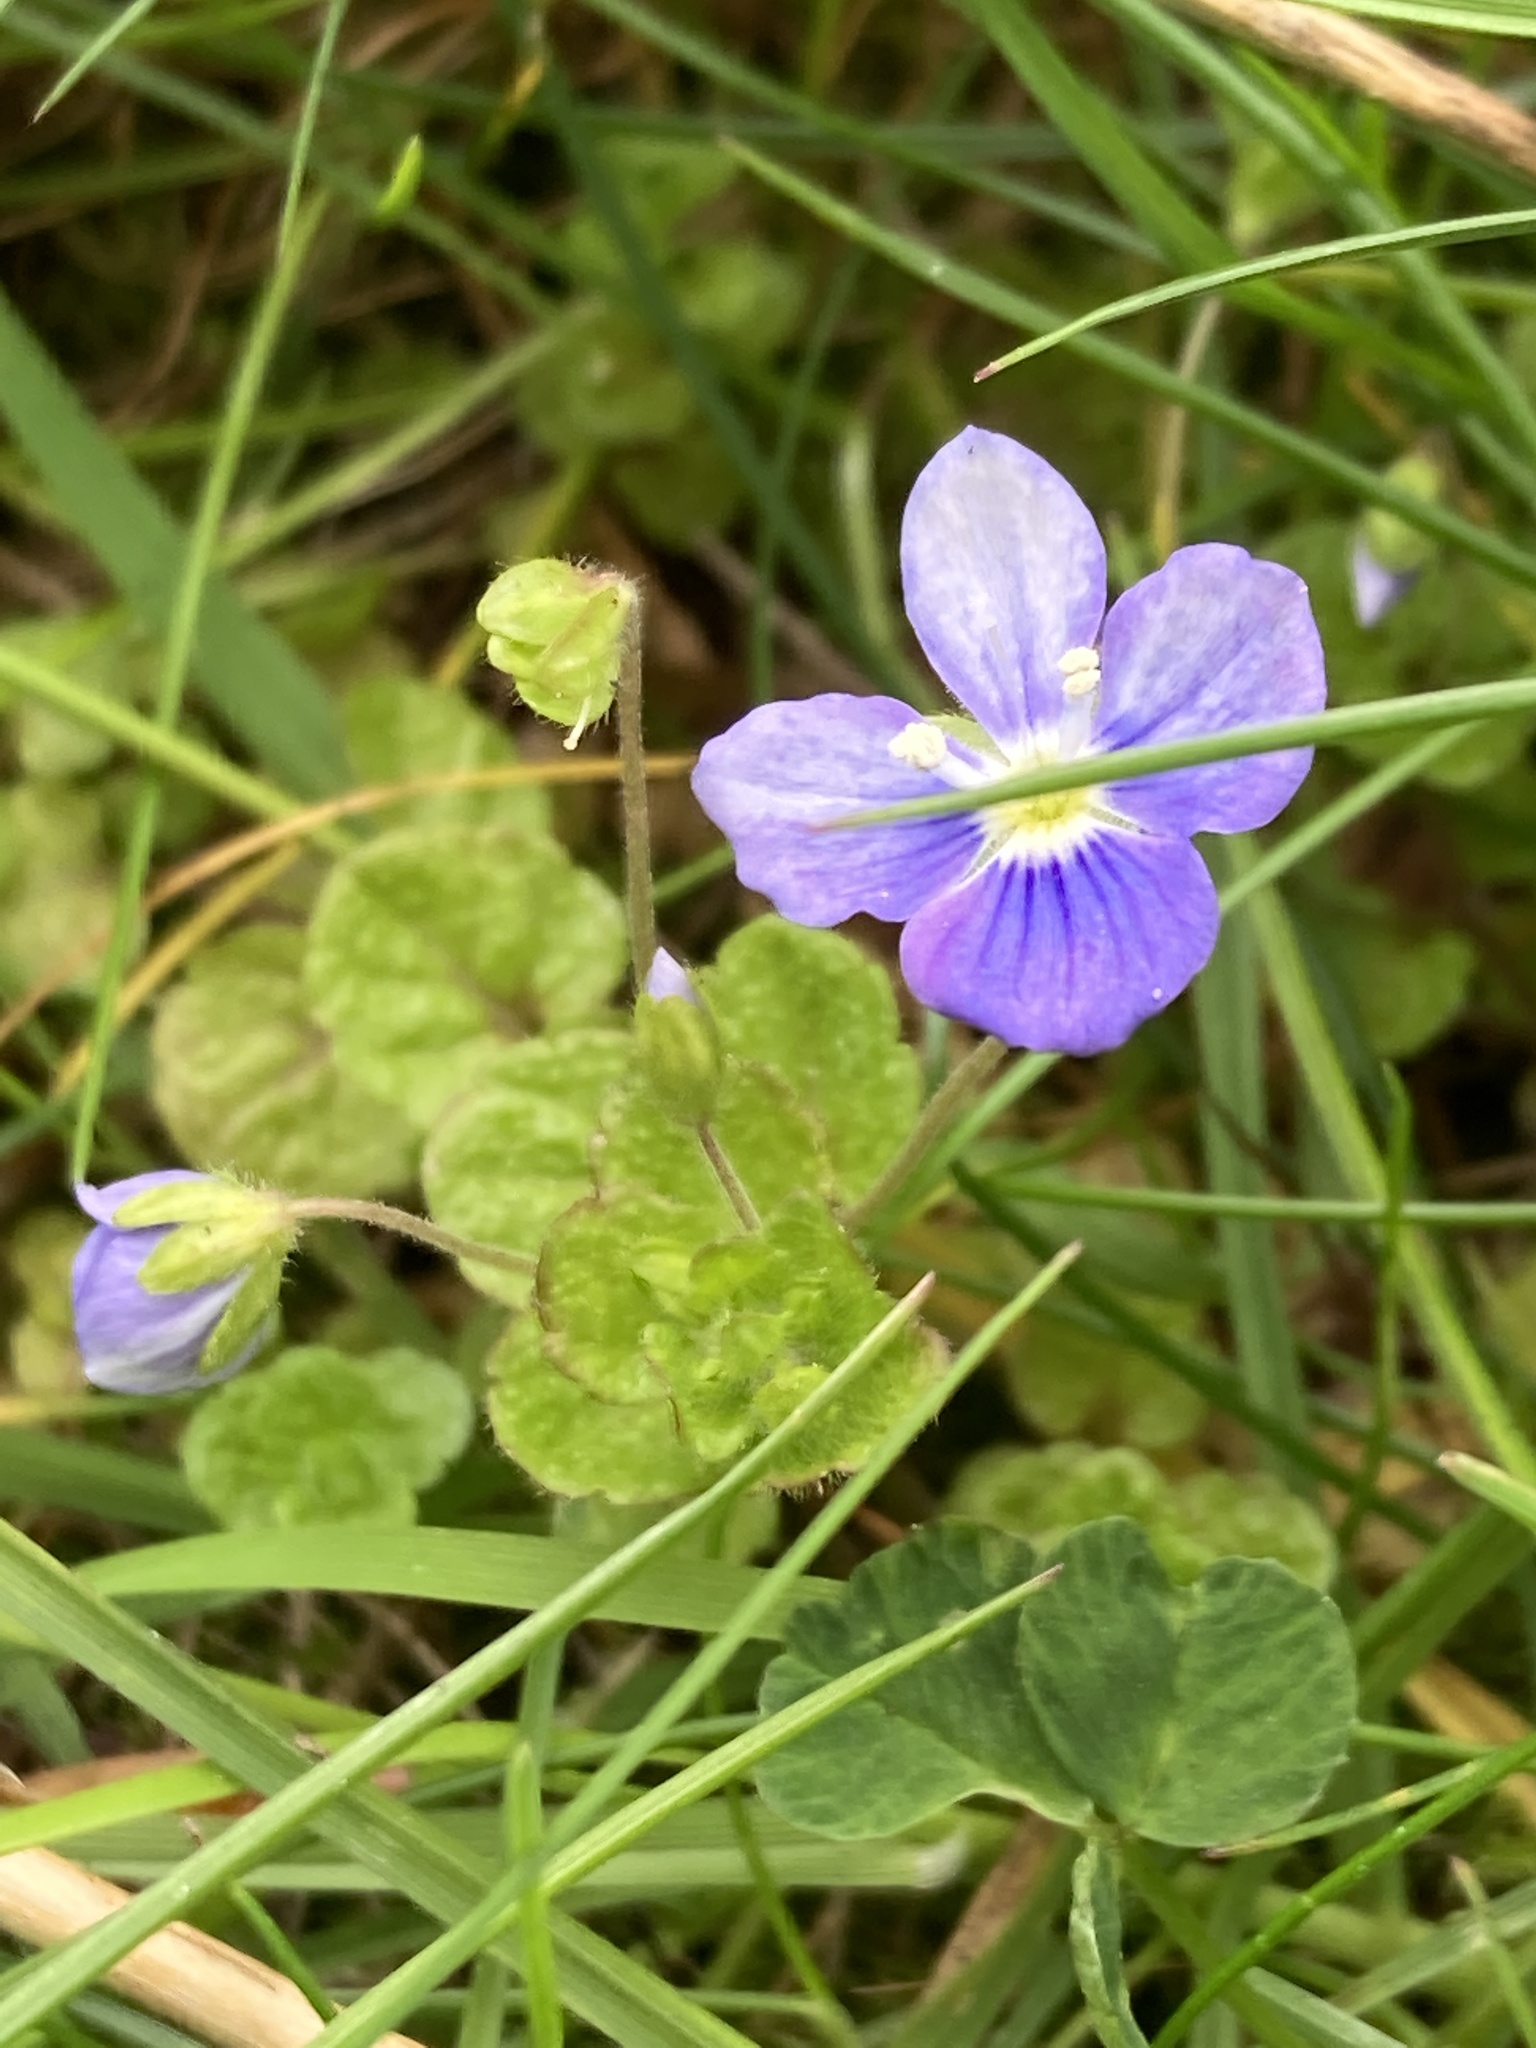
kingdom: Plantae
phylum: Tracheophyta
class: Magnoliopsida
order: Lamiales
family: Plantaginaceae
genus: Veronica
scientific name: Veronica filiformis
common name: Slender speedwell
